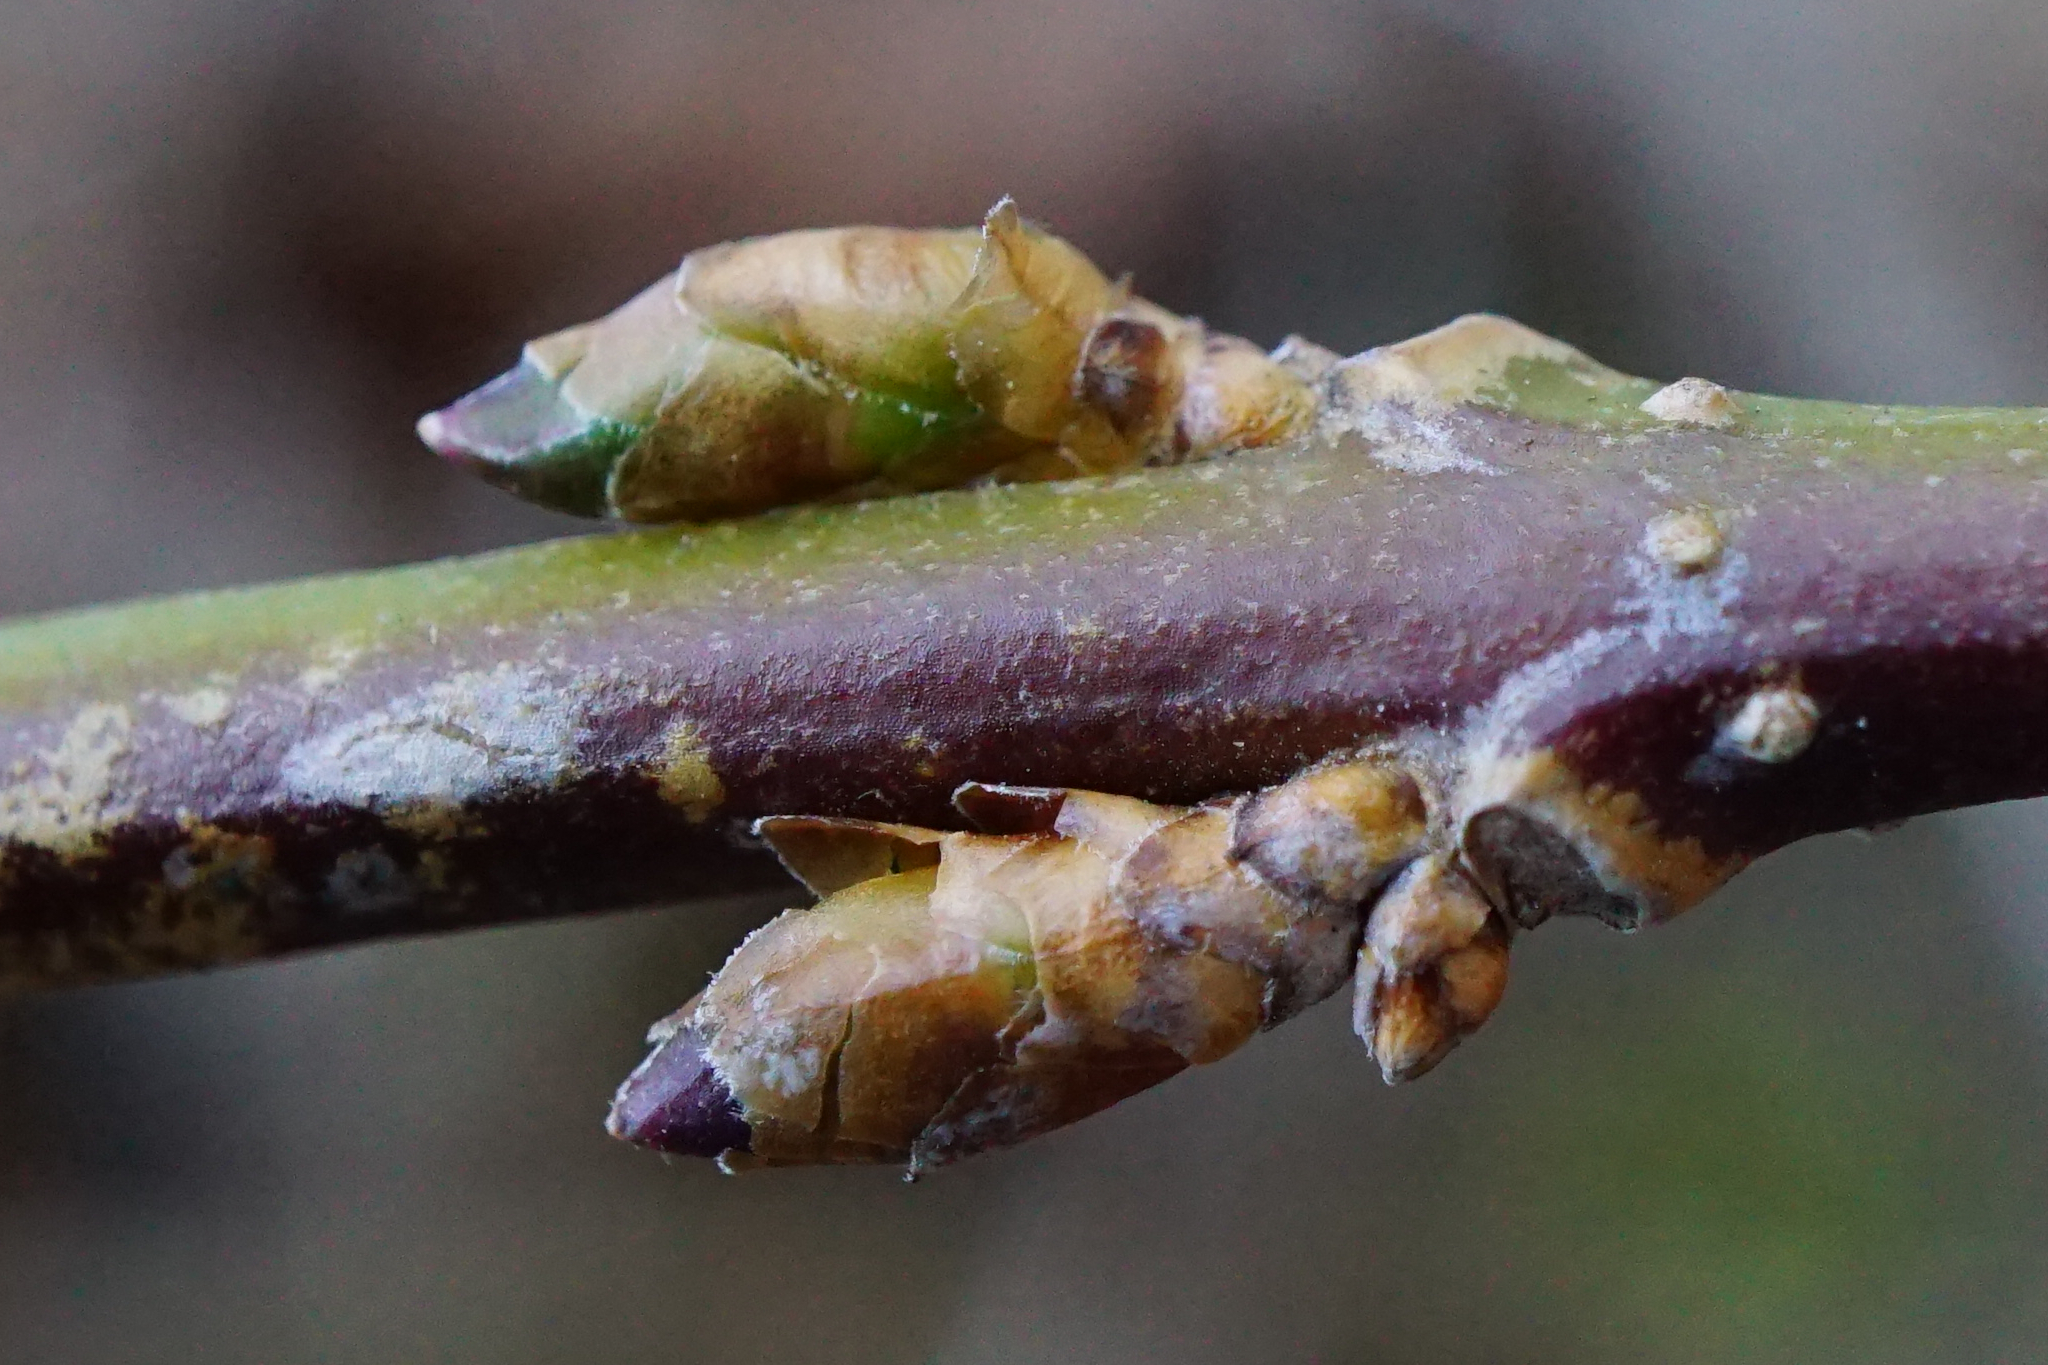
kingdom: Plantae
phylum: Tracheophyta
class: Magnoliopsida
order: Lamiales
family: Oleaceae
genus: Forsythia
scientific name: Forsythia intermedia
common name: Forsythia
